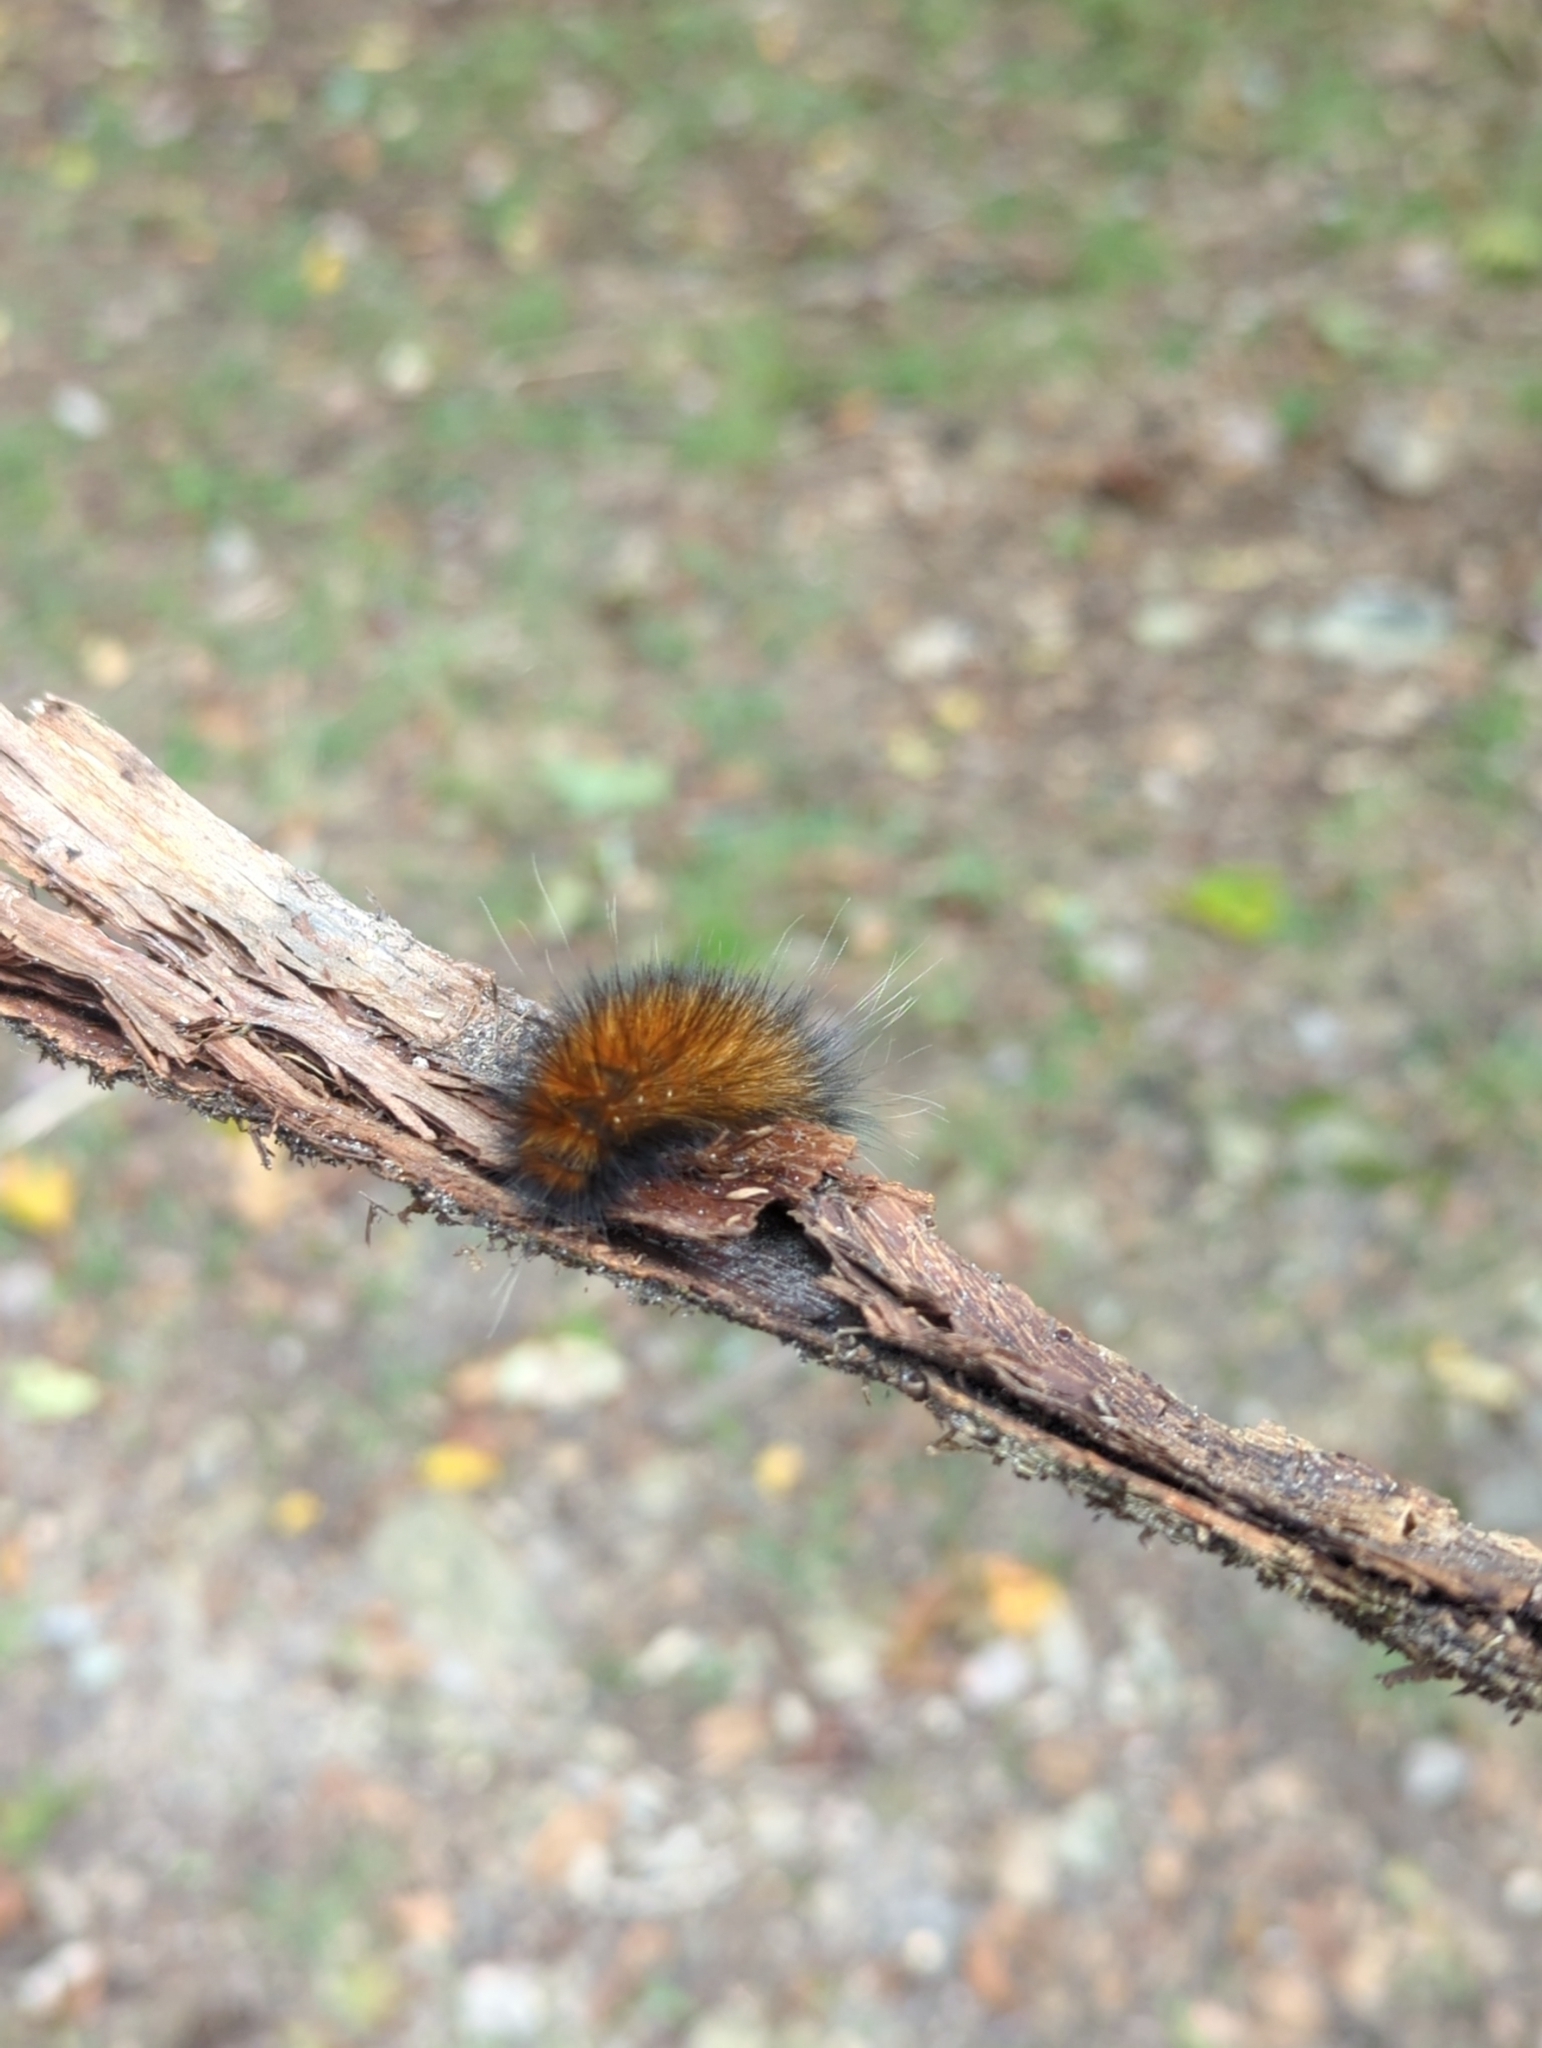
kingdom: Animalia
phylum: Arthropoda
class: Insecta
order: Lepidoptera
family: Erebidae
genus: Spilosoma
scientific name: Spilosoma virginica
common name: Virginia tiger moth
